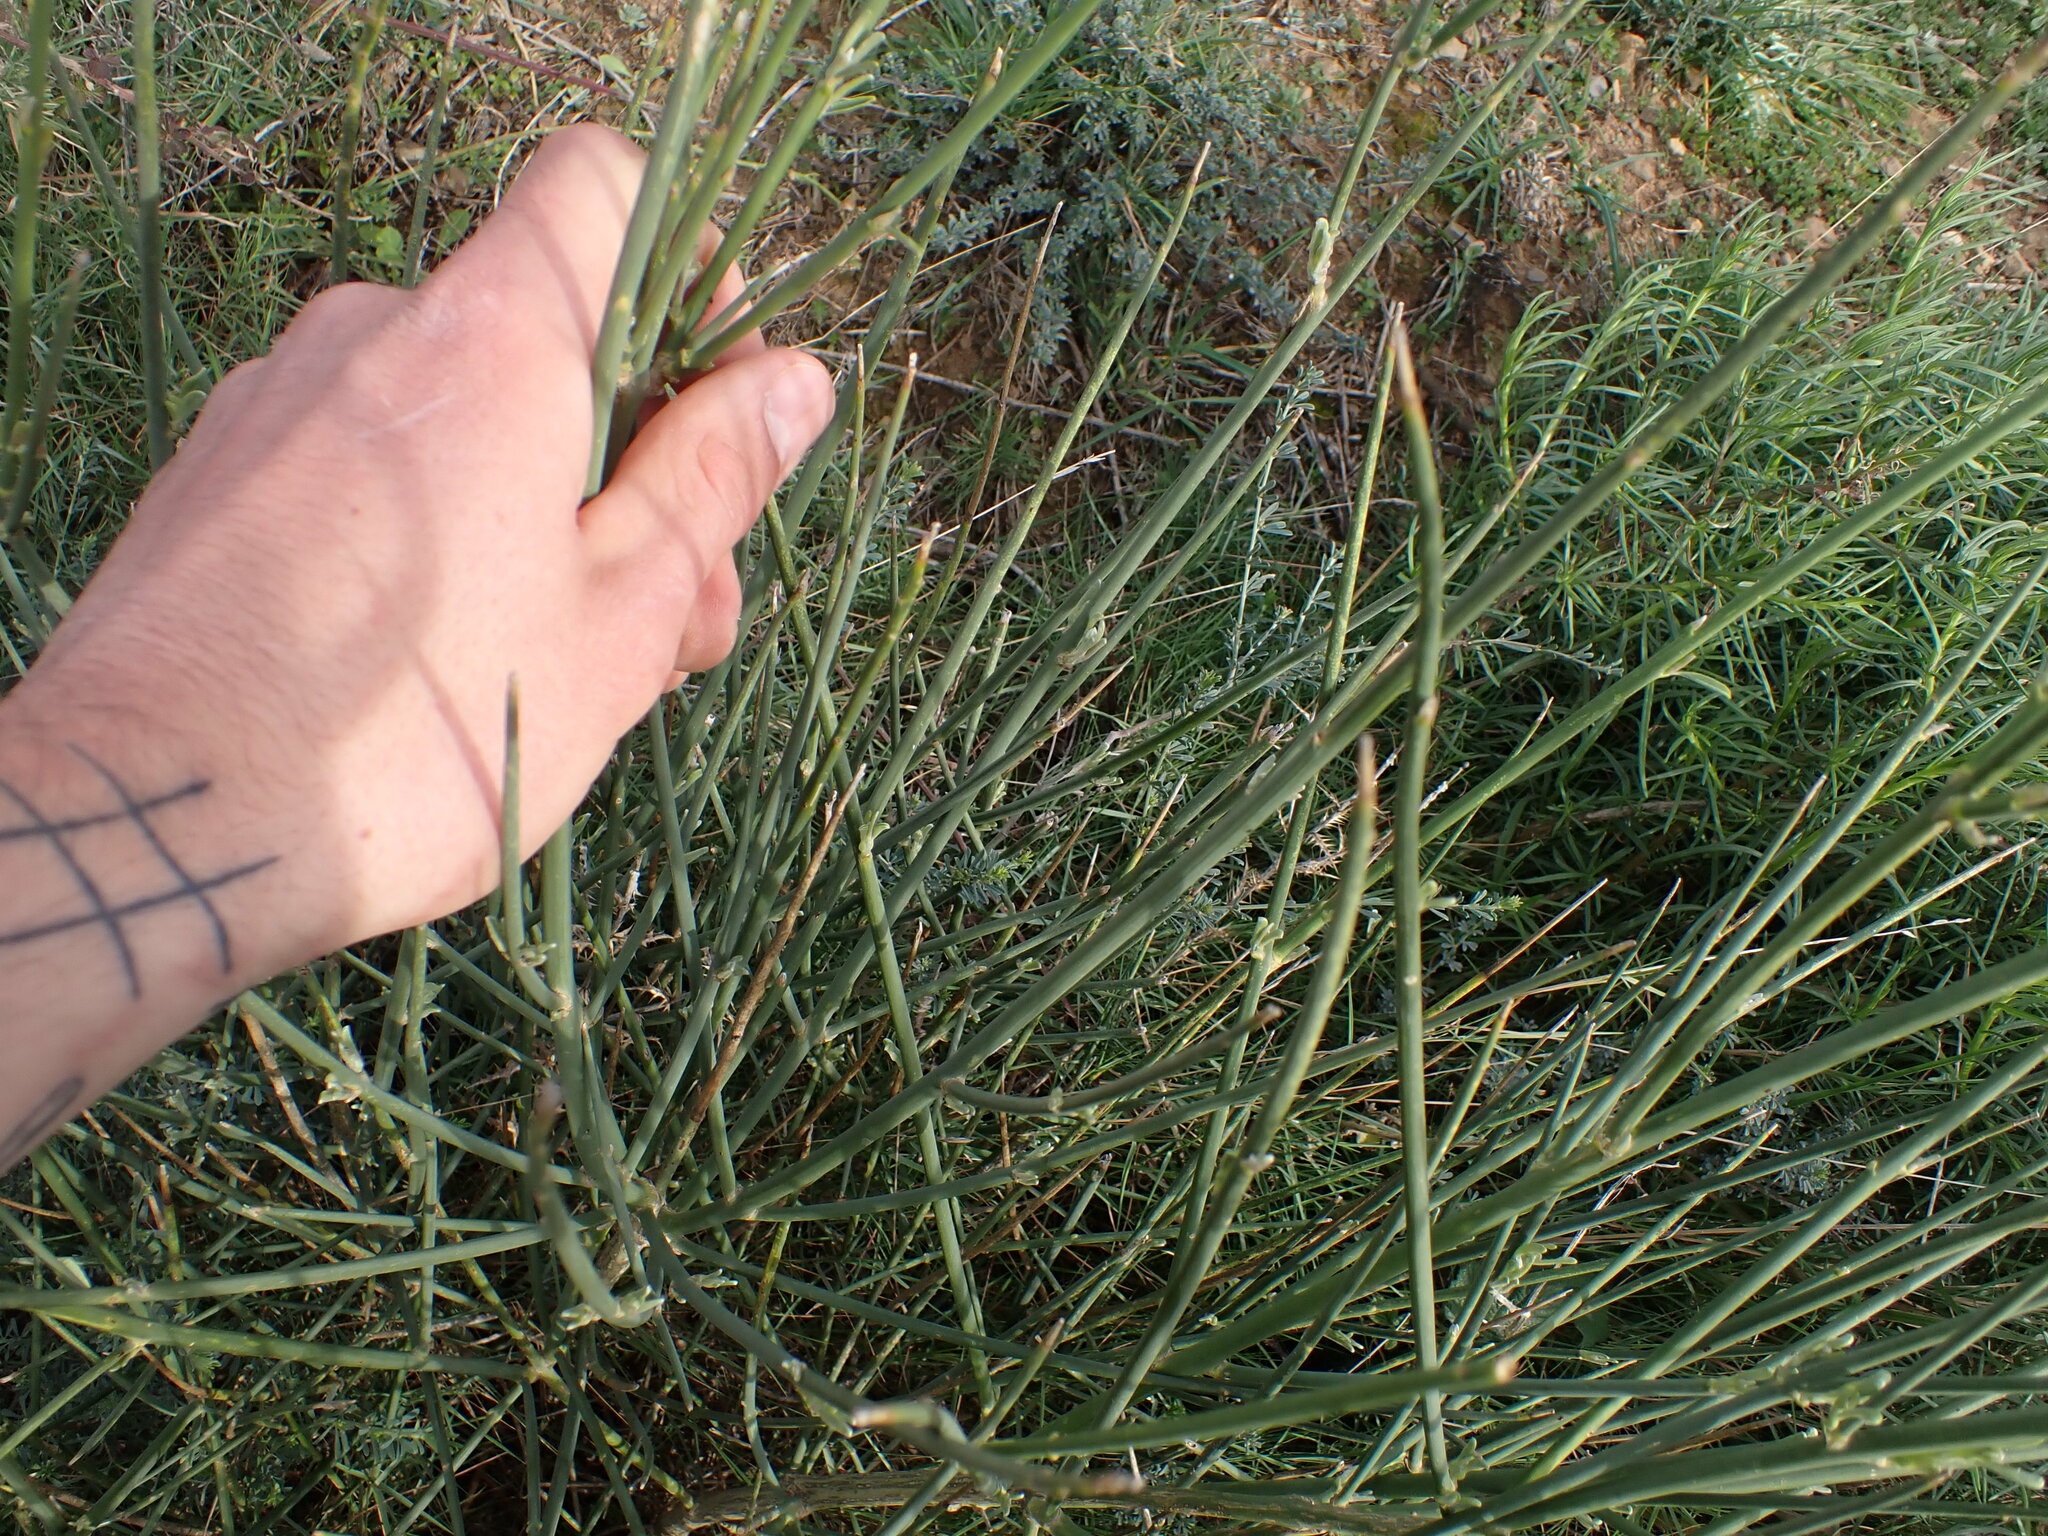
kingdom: Plantae
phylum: Tracheophyta
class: Magnoliopsida
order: Fabales
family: Fabaceae
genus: Spartium
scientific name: Spartium junceum
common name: Spanish broom
